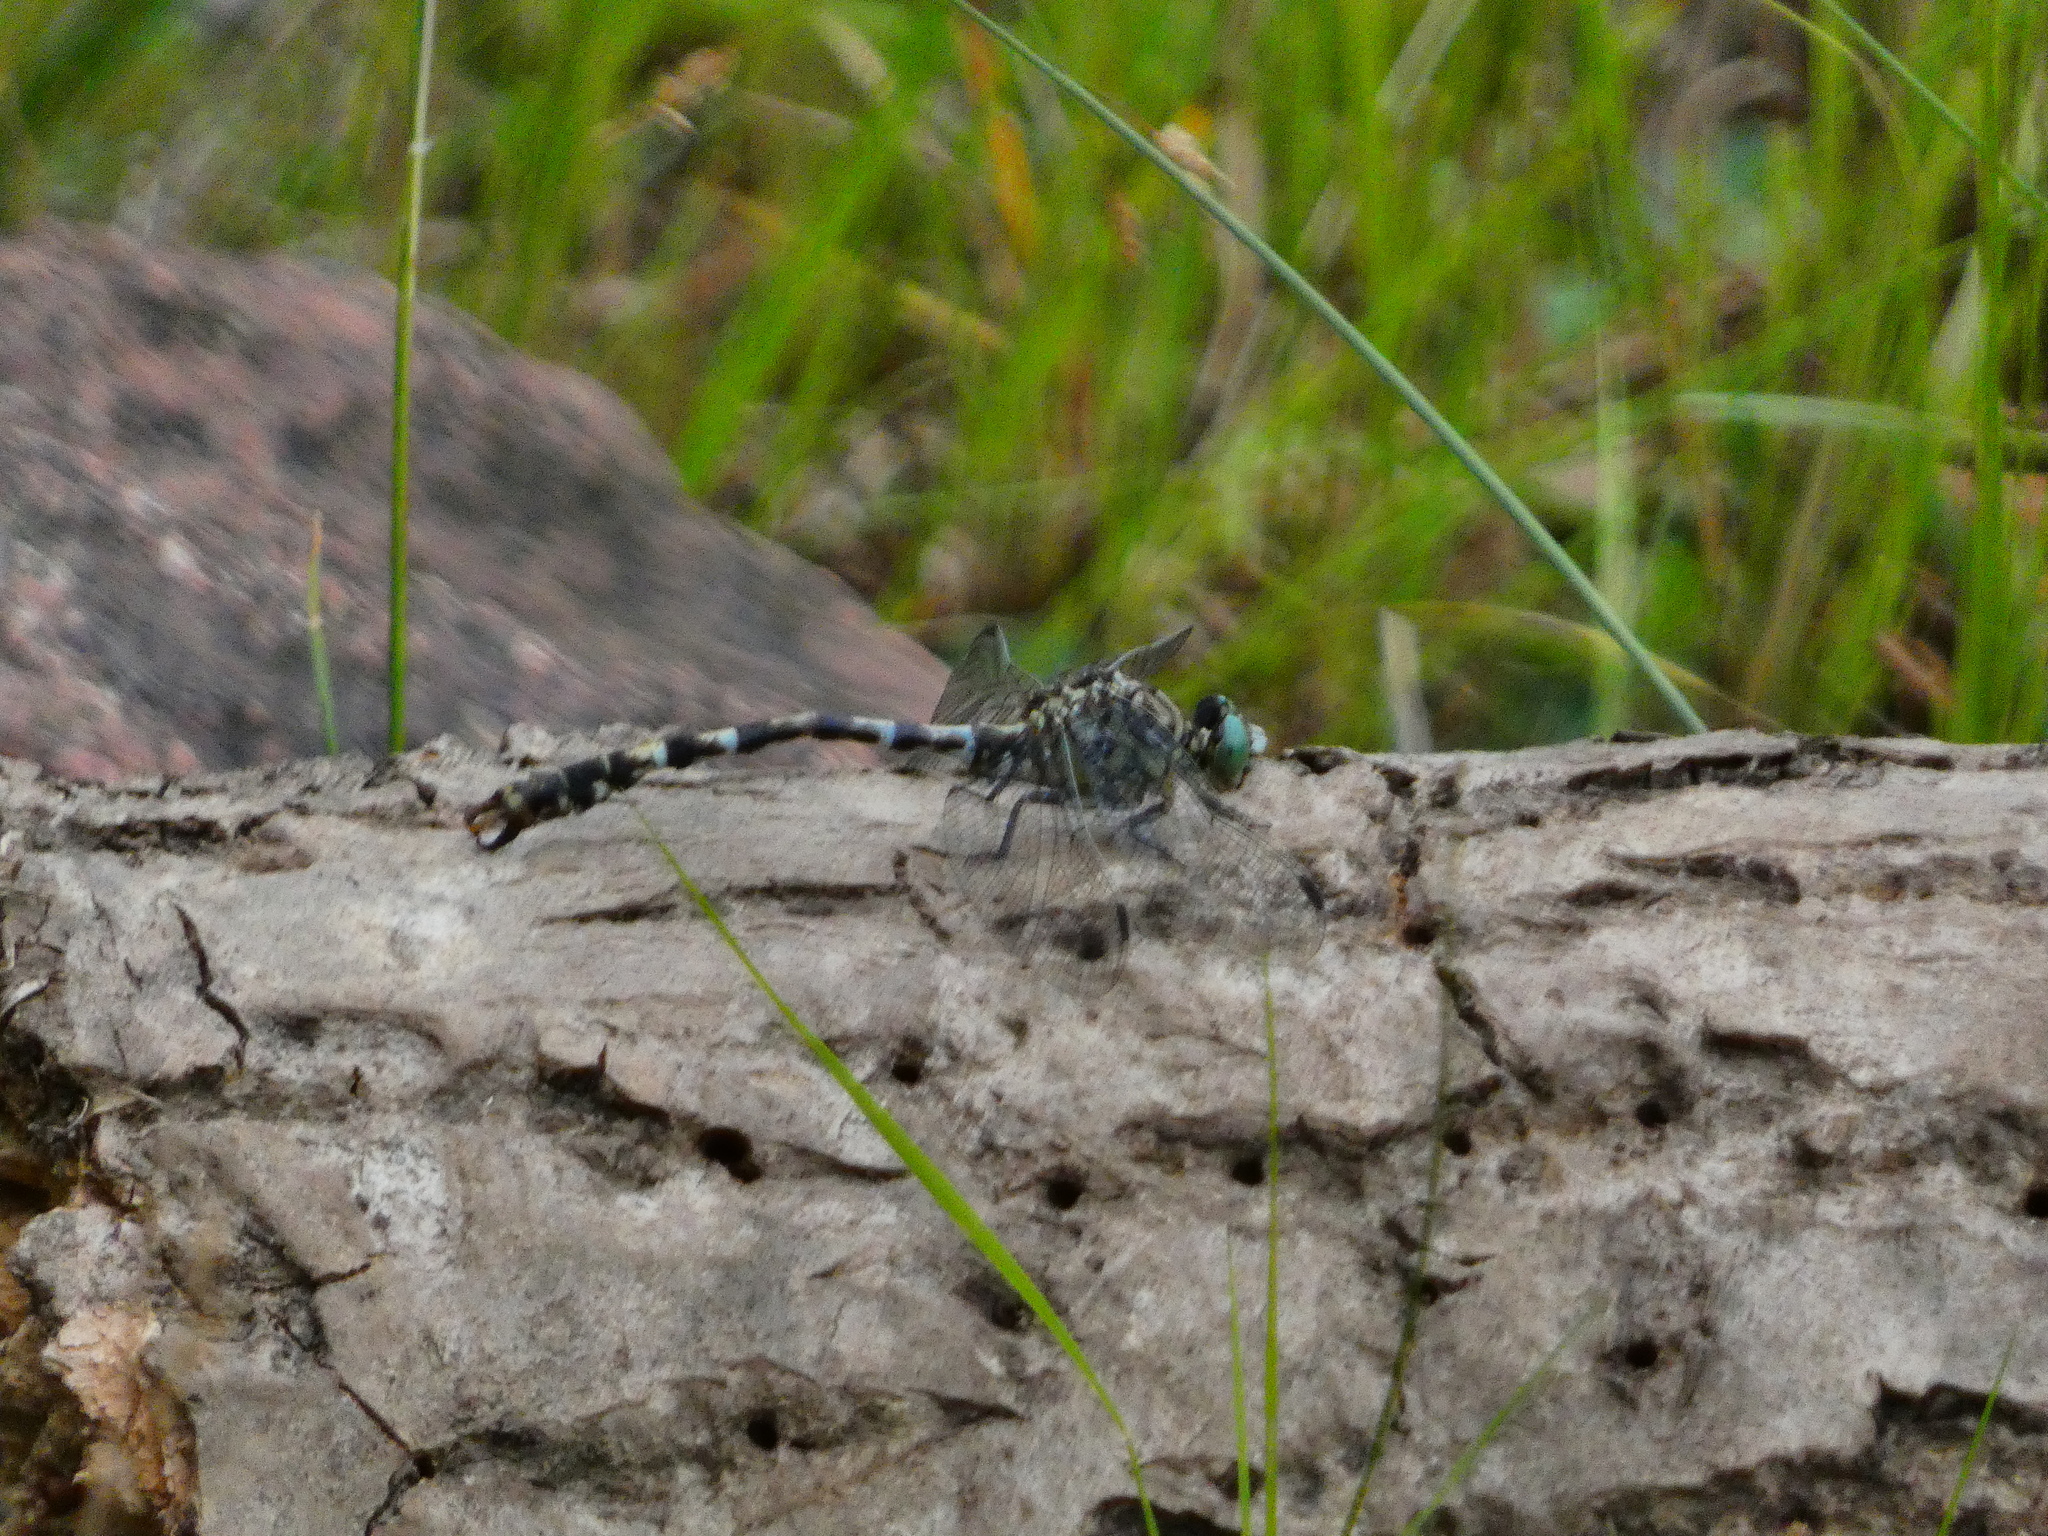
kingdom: Animalia
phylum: Arthropoda
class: Insecta
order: Odonata
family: Gomphidae
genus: Onychogomphus
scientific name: Onychogomphus forcipatus
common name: Small pincertail
